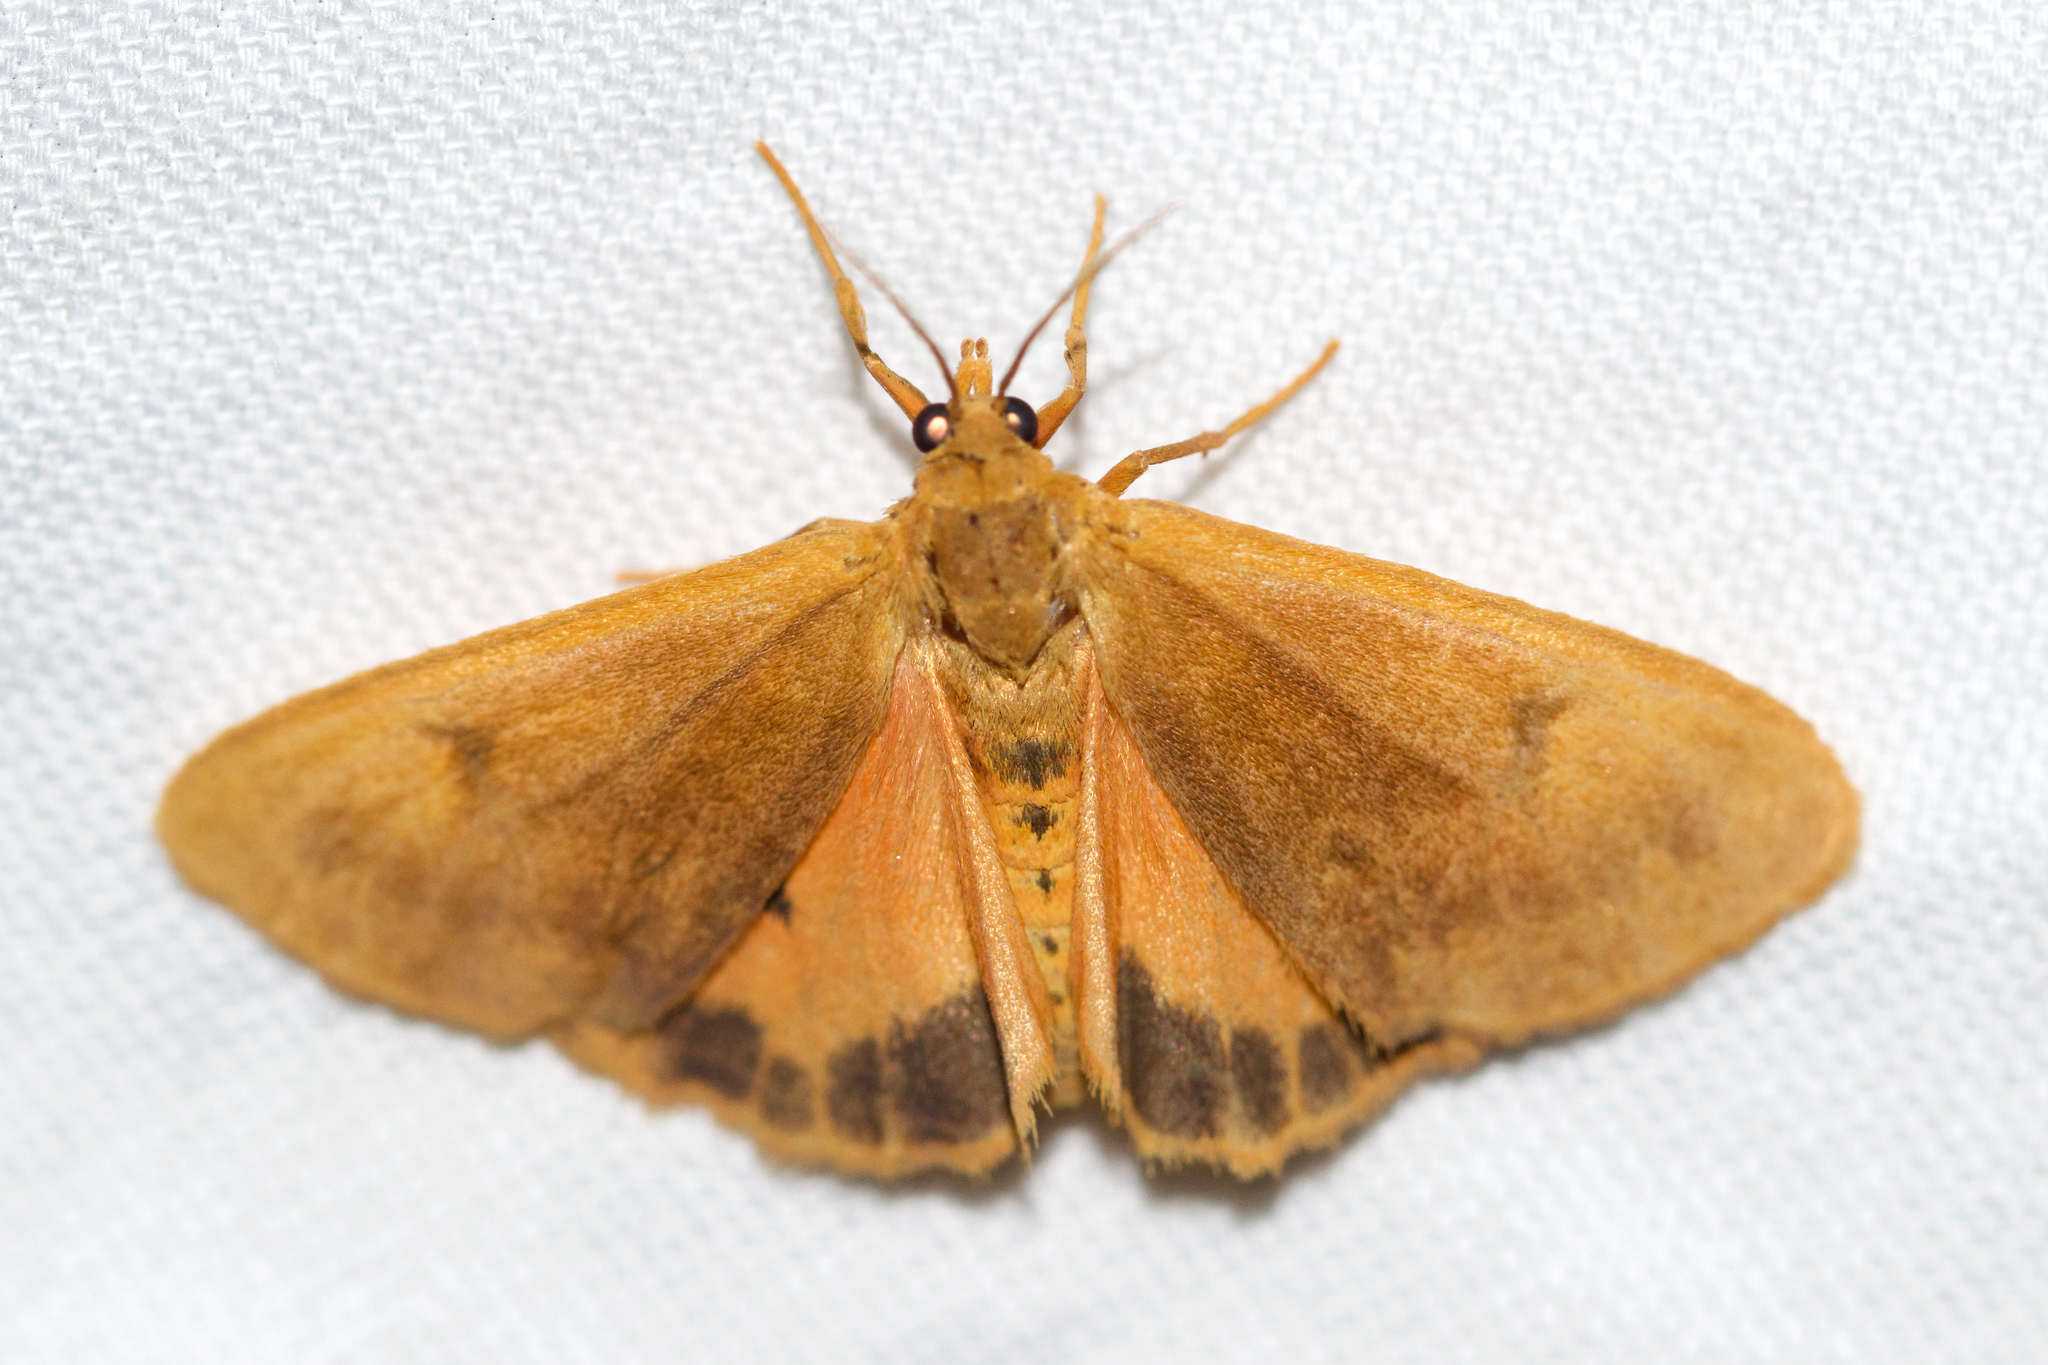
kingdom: Animalia
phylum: Arthropoda
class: Insecta
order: Lepidoptera
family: Erebidae
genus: Virbia
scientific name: Virbia ferruginosa
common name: Rusty virbia moth
